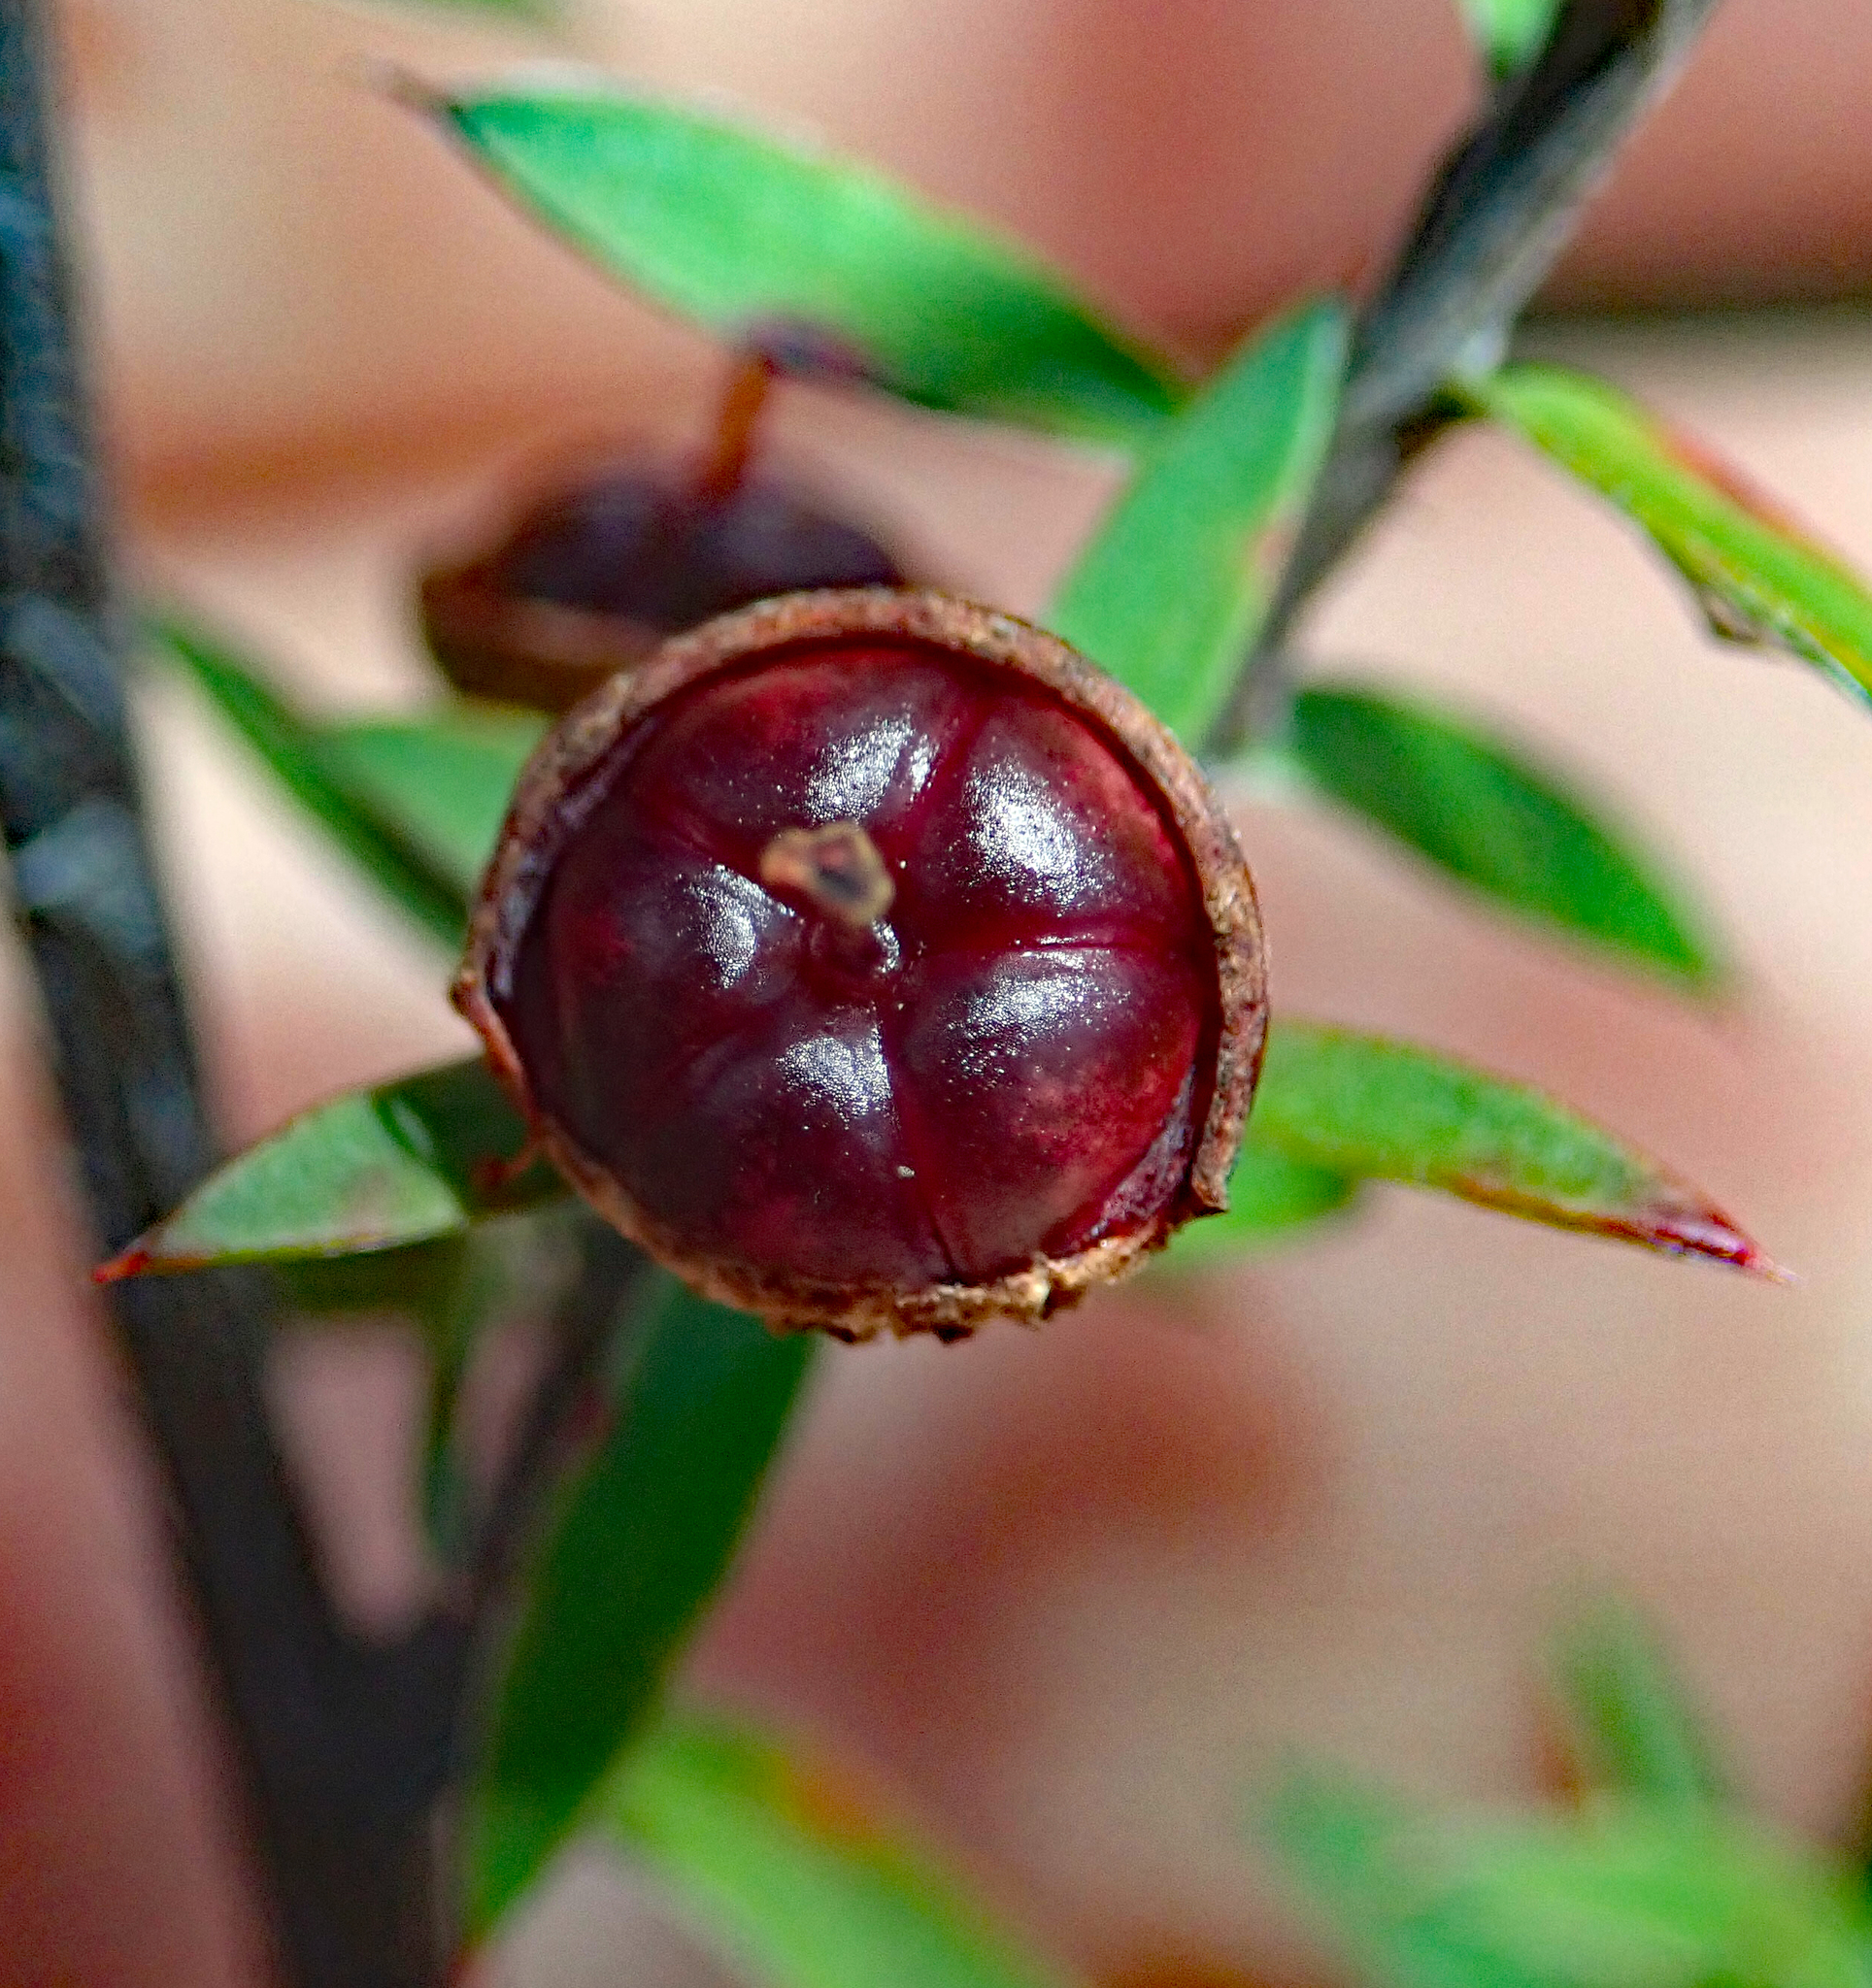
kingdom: Plantae
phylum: Tracheophyta
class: Magnoliopsida
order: Myrtales
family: Myrtaceae
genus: Leptospermum
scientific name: Leptospermum scoparium
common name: Broom tea-tree
